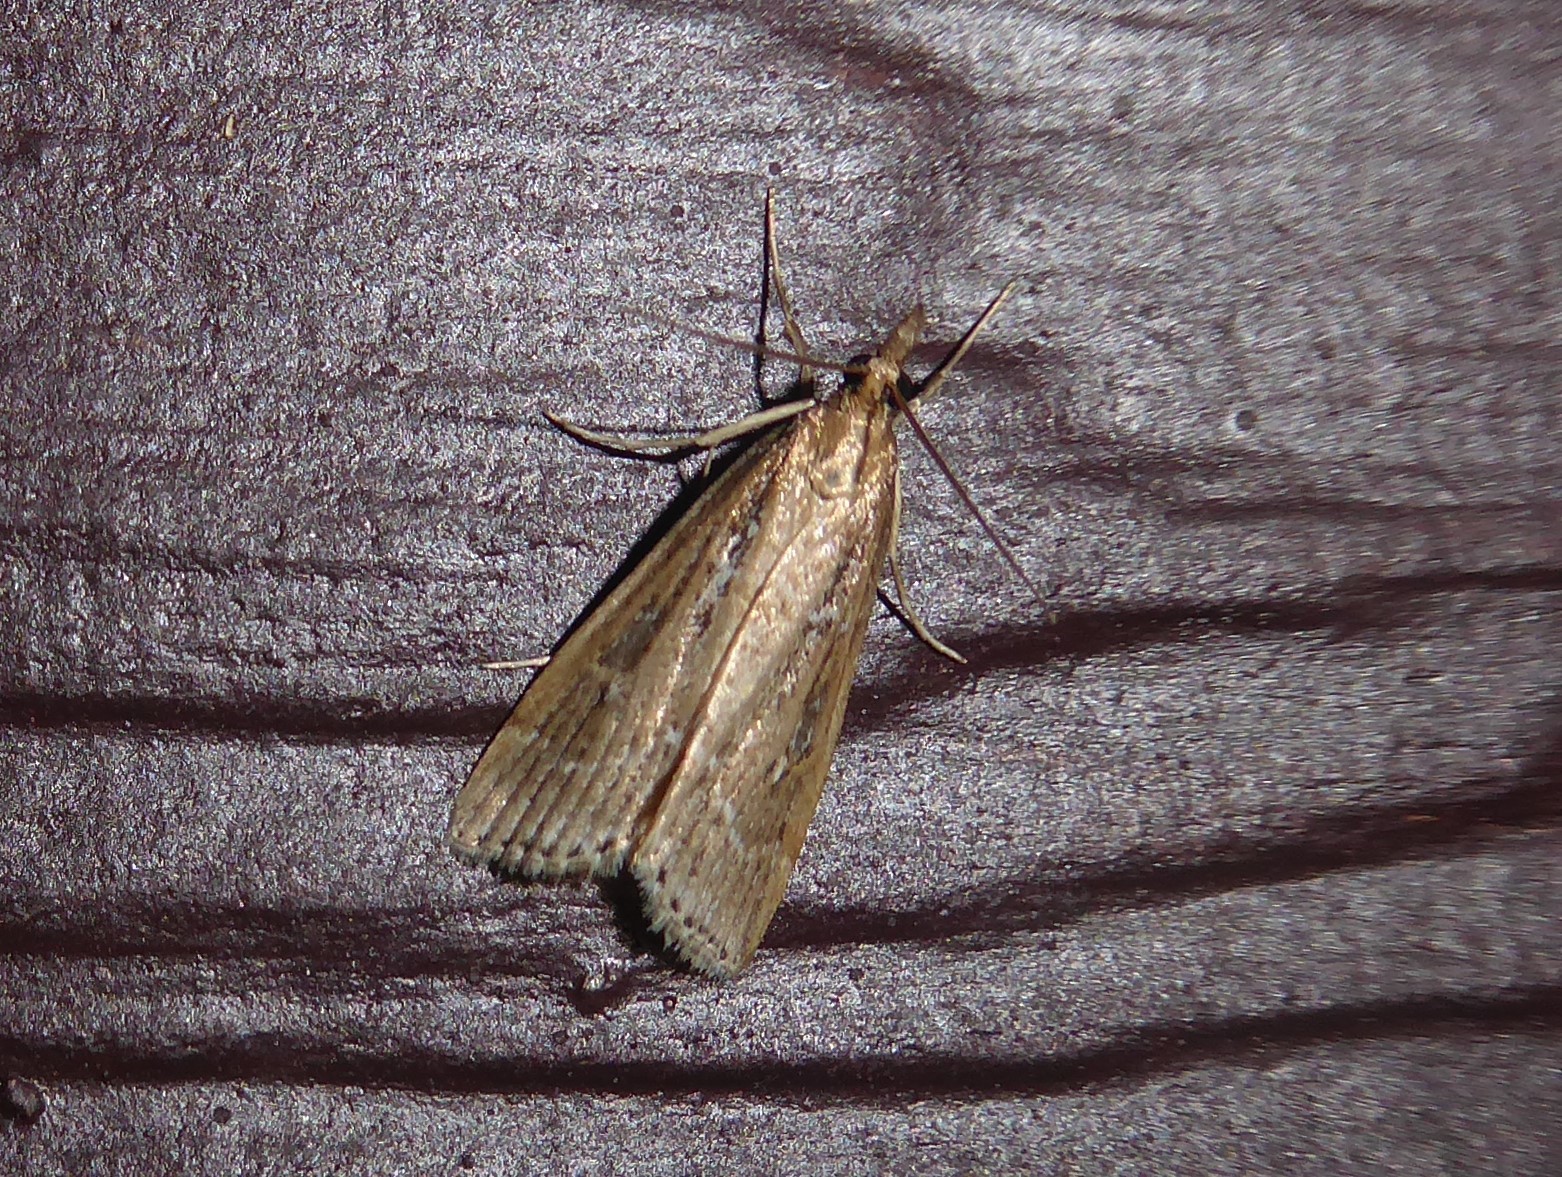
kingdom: Animalia
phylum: Arthropoda
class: Insecta
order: Lepidoptera
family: Crambidae
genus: Eudonia
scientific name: Eudonia octophora
